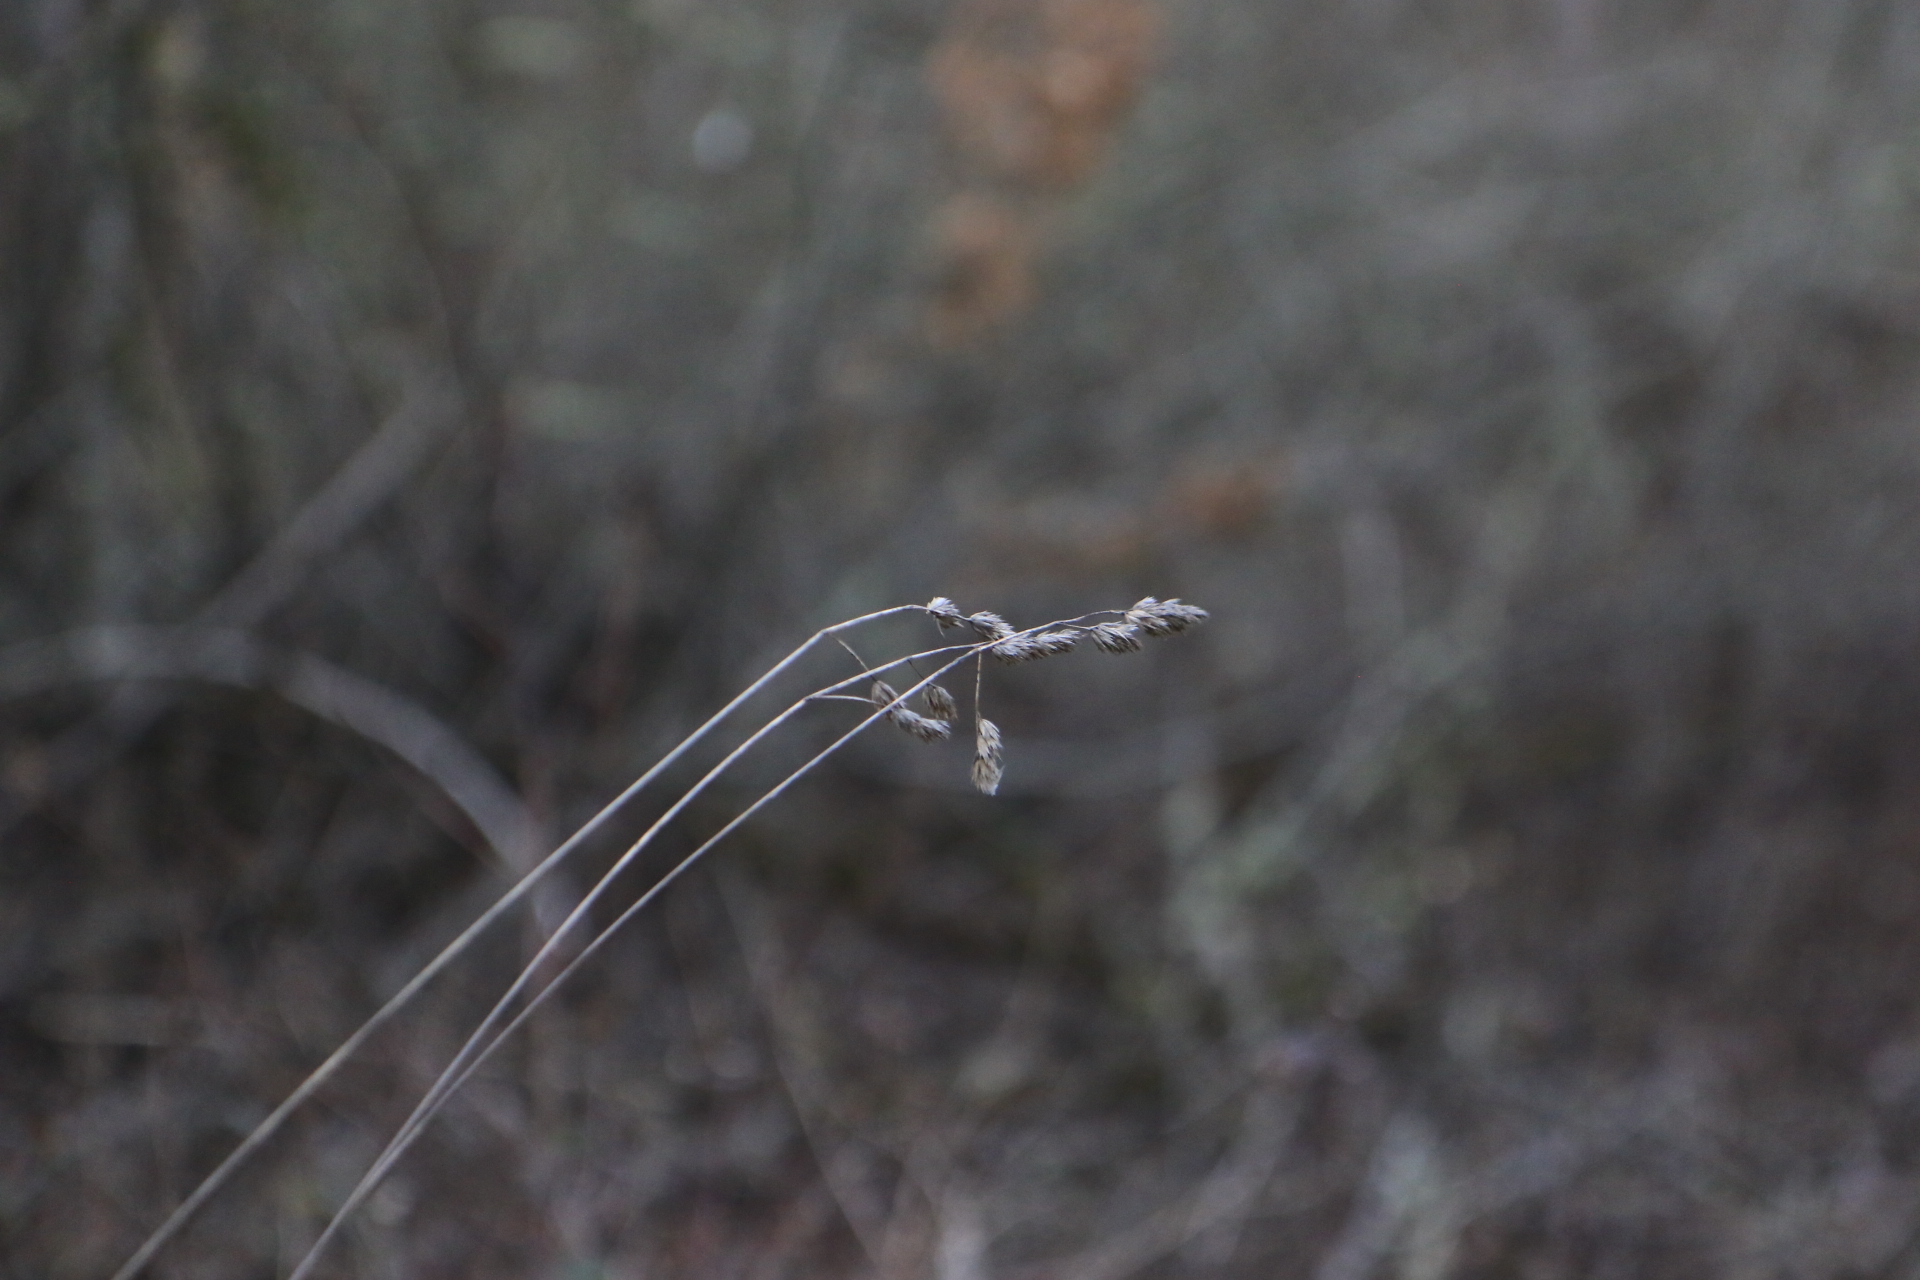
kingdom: Plantae
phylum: Tracheophyta
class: Liliopsida
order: Poales
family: Poaceae
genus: Dactylis
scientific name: Dactylis glomerata
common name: Orchardgrass
